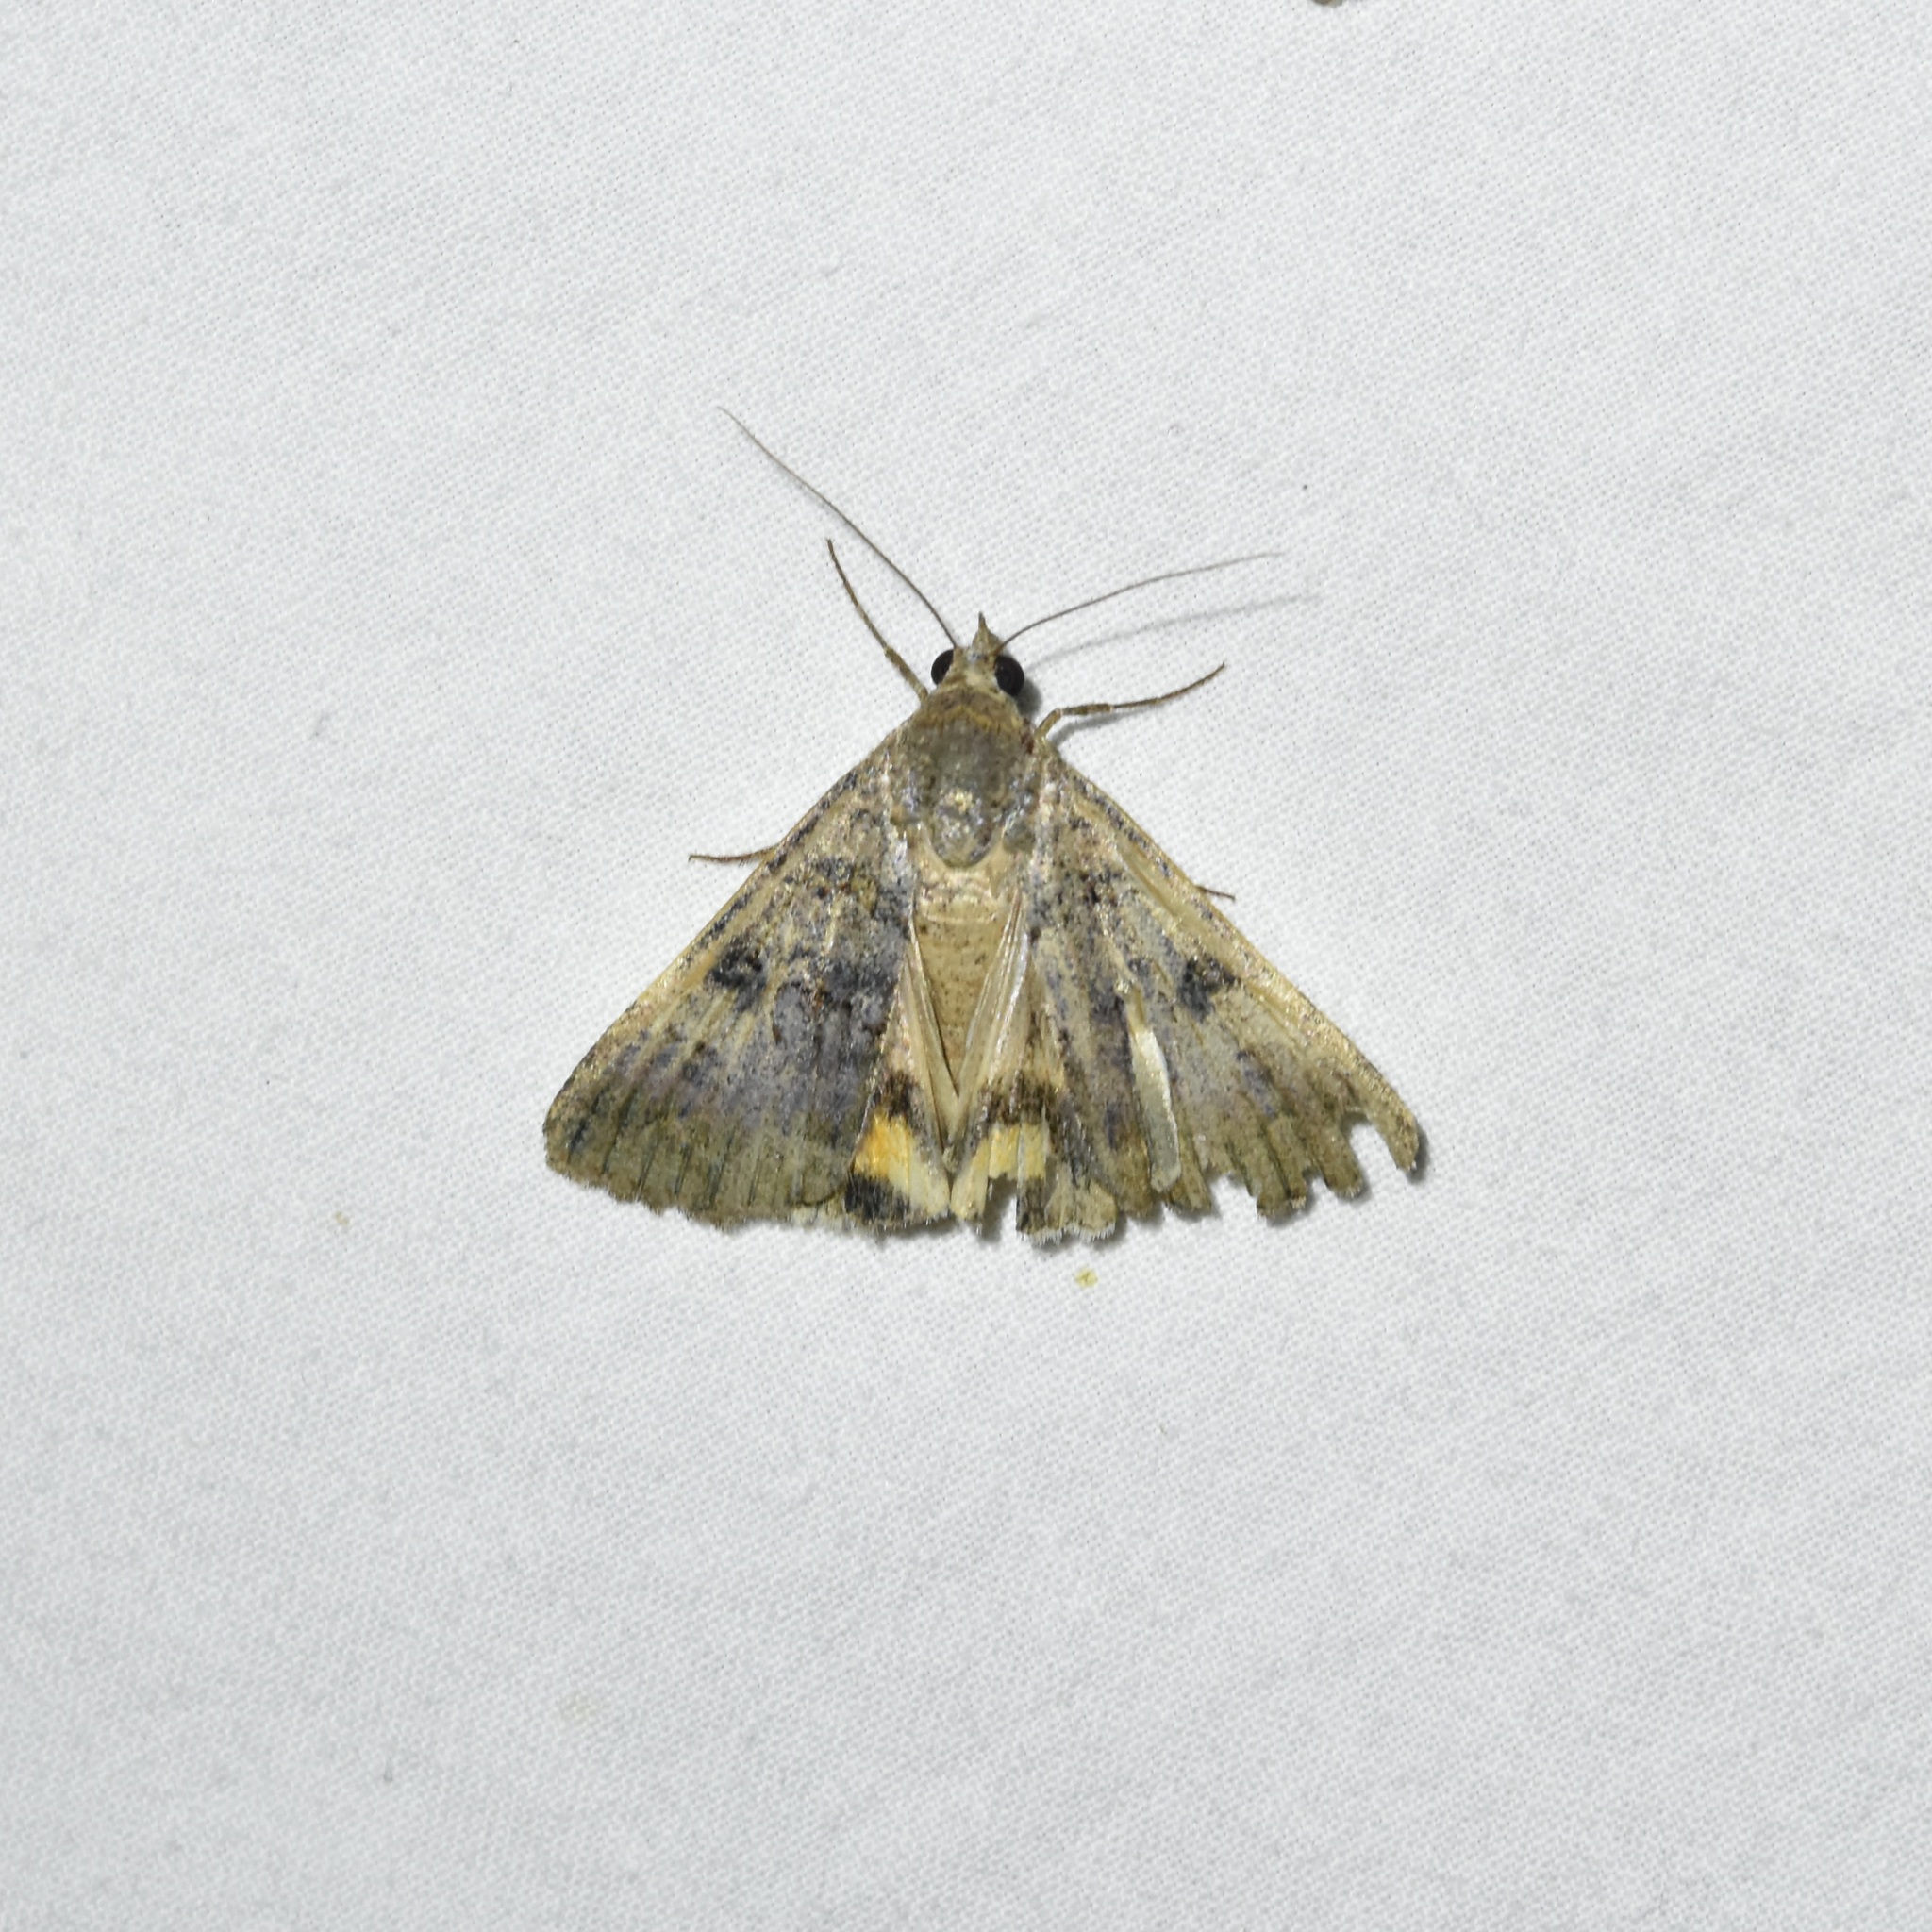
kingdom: Animalia
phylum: Arthropoda
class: Insecta
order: Lepidoptera
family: Erebidae
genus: Bulia
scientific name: Bulia deducta
